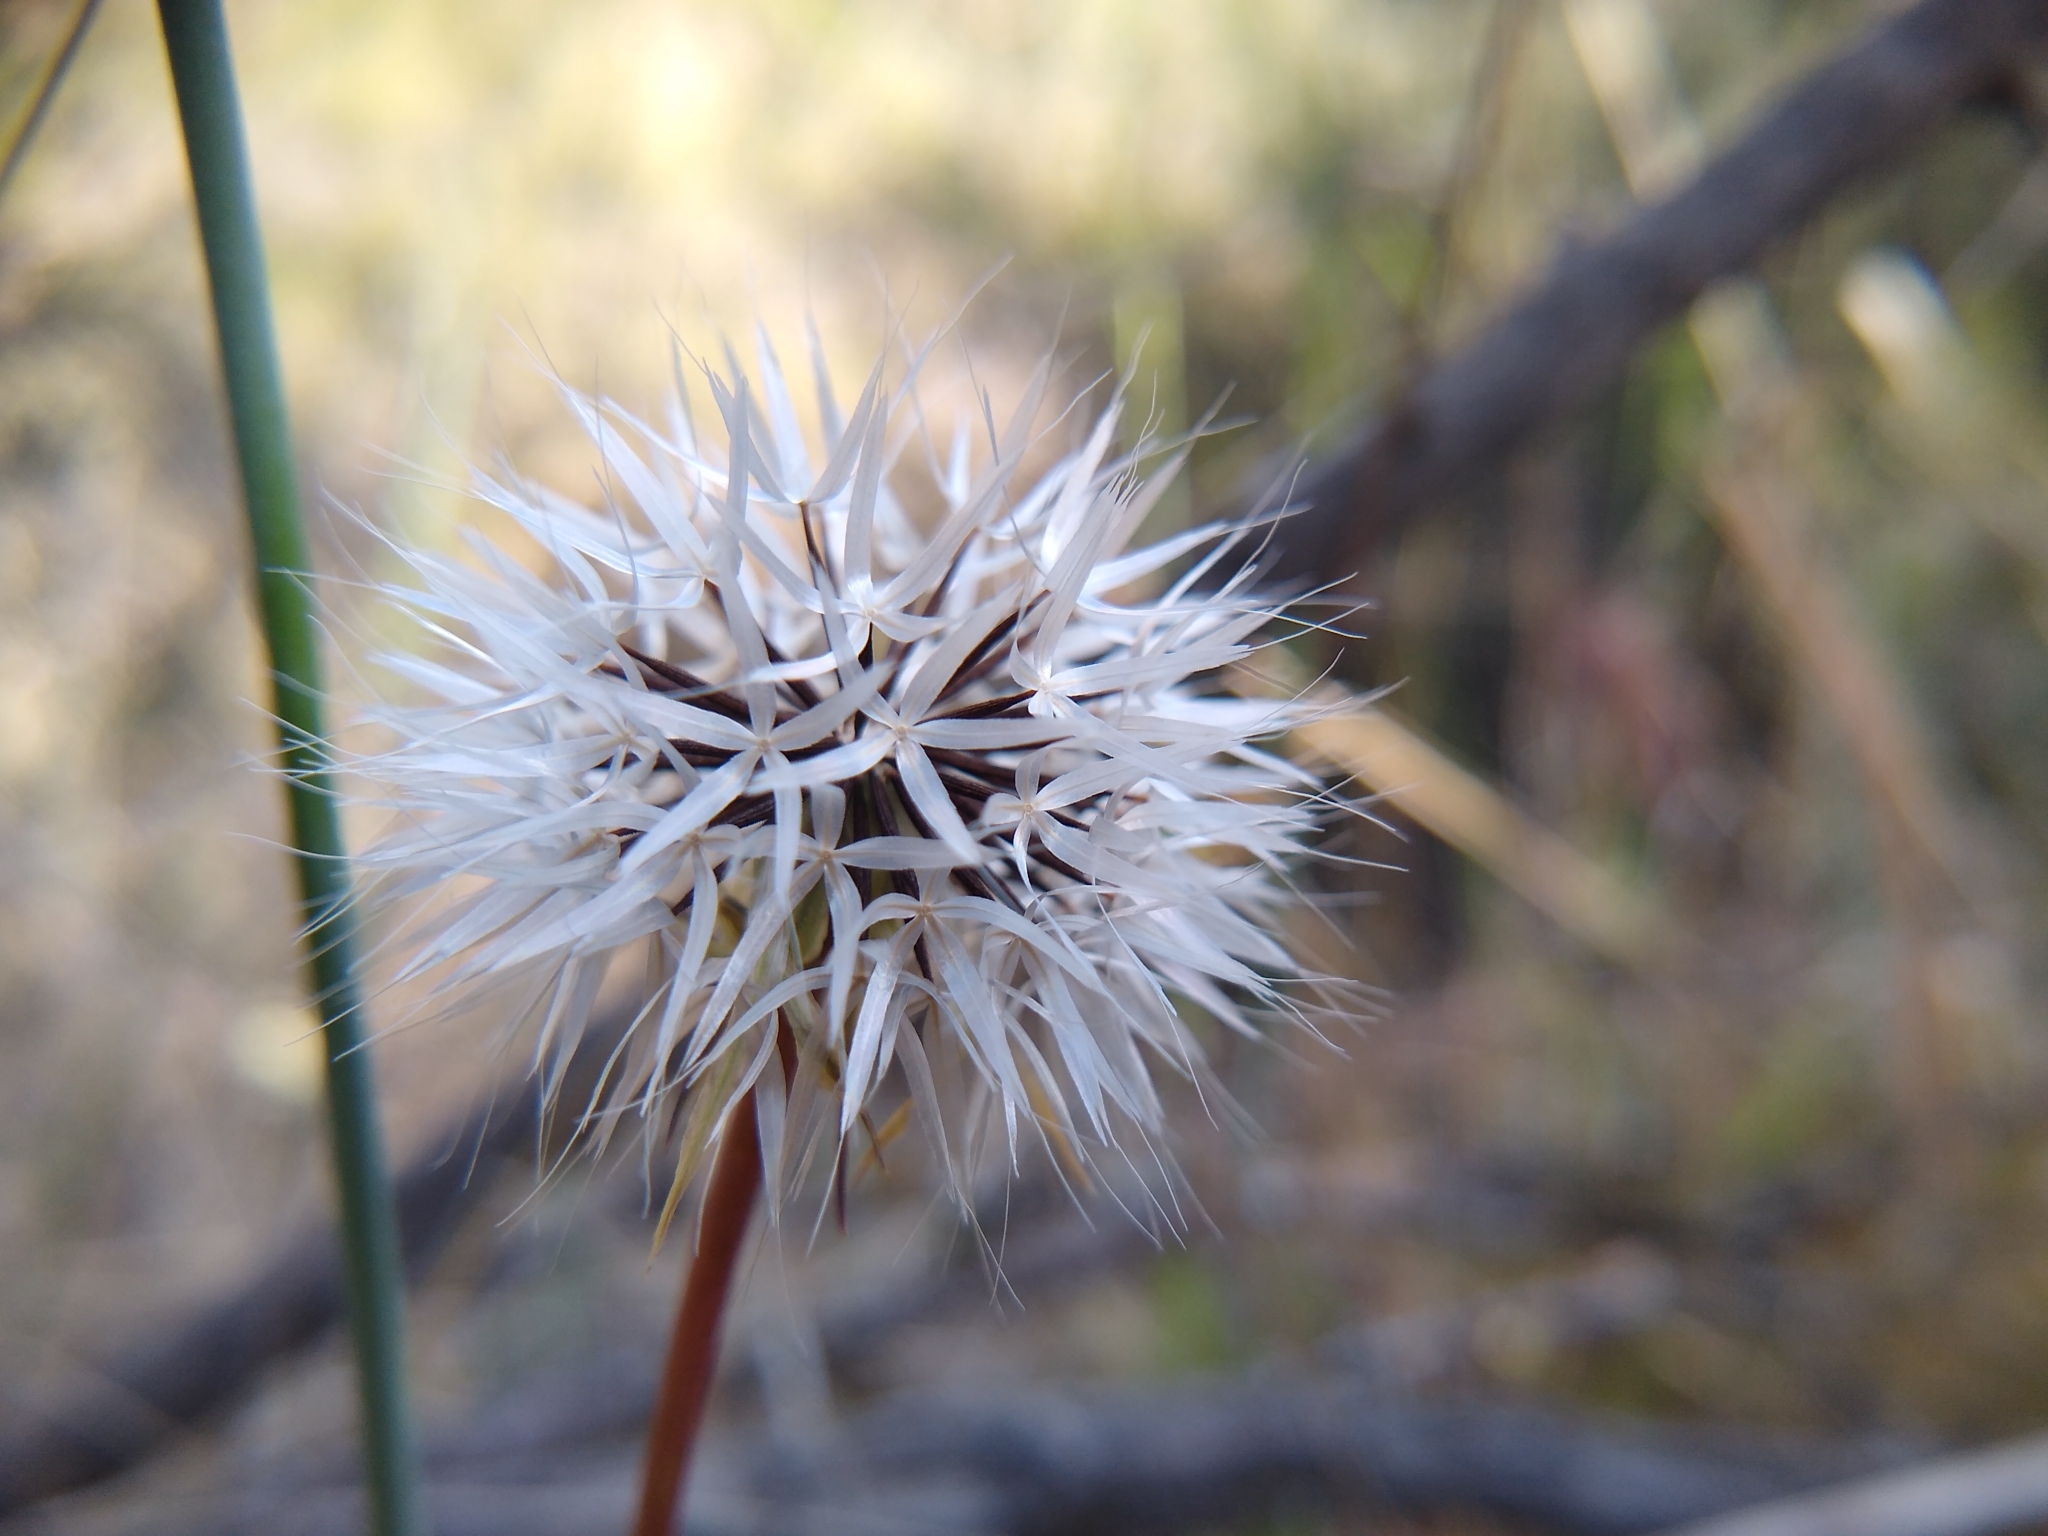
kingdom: Plantae
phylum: Tracheophyta
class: Magnoliopsida
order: Asterales
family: Asteraceae
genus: Microseris
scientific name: Microseris lindleyi
